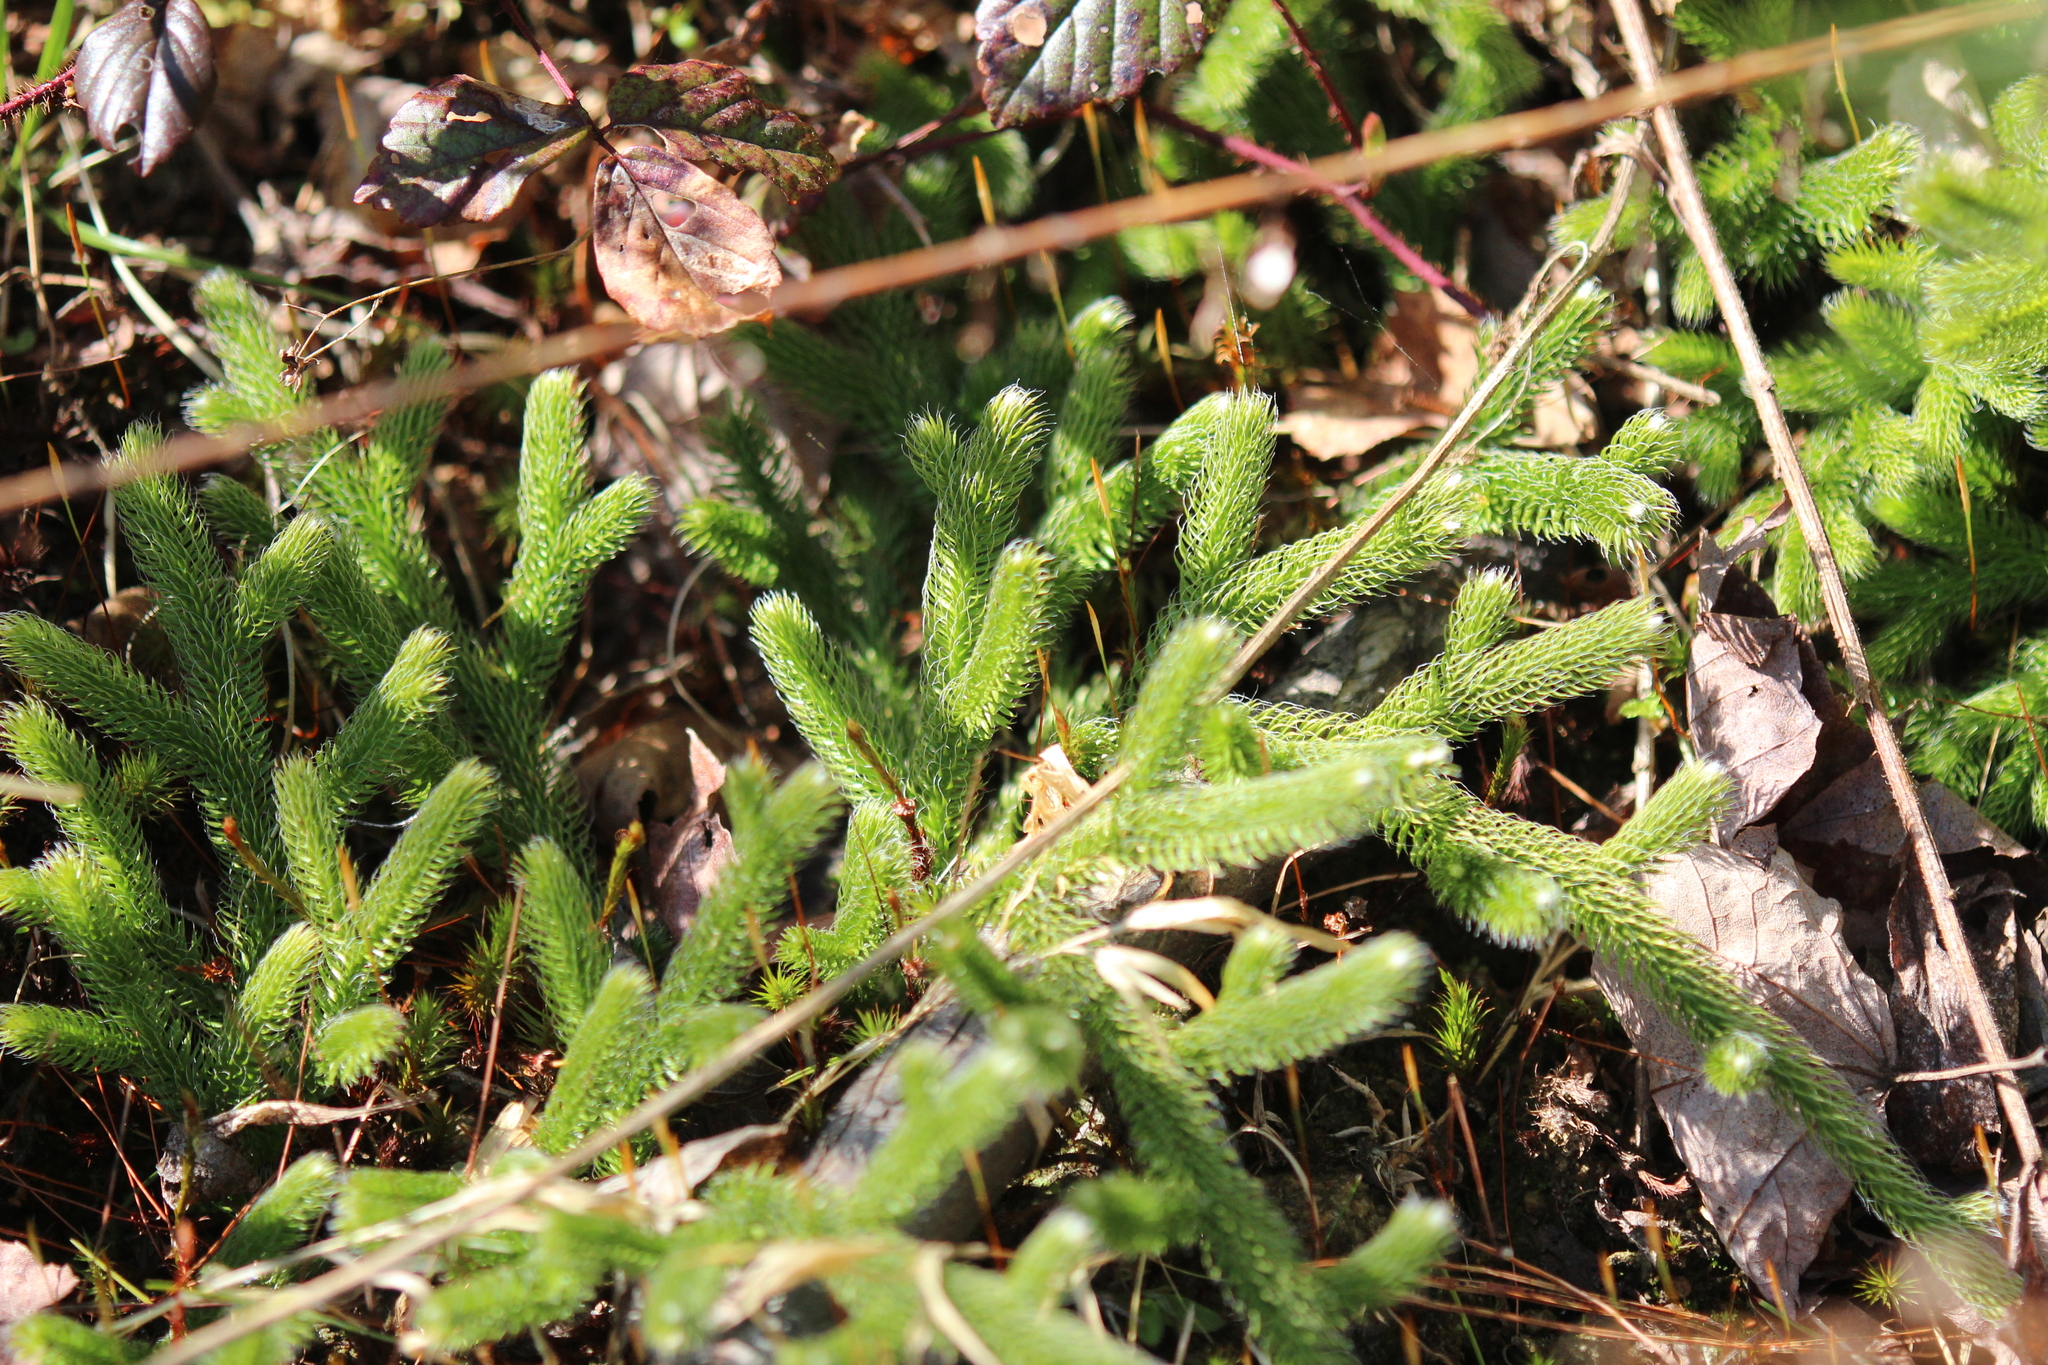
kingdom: Plantae
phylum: Tracheophyta
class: Lycopodiopsida
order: Lycopodiales
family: Lycopodiaceae
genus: Lycopodium
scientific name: Lycopodium clavatum
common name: Stag's-horn clubmoss
